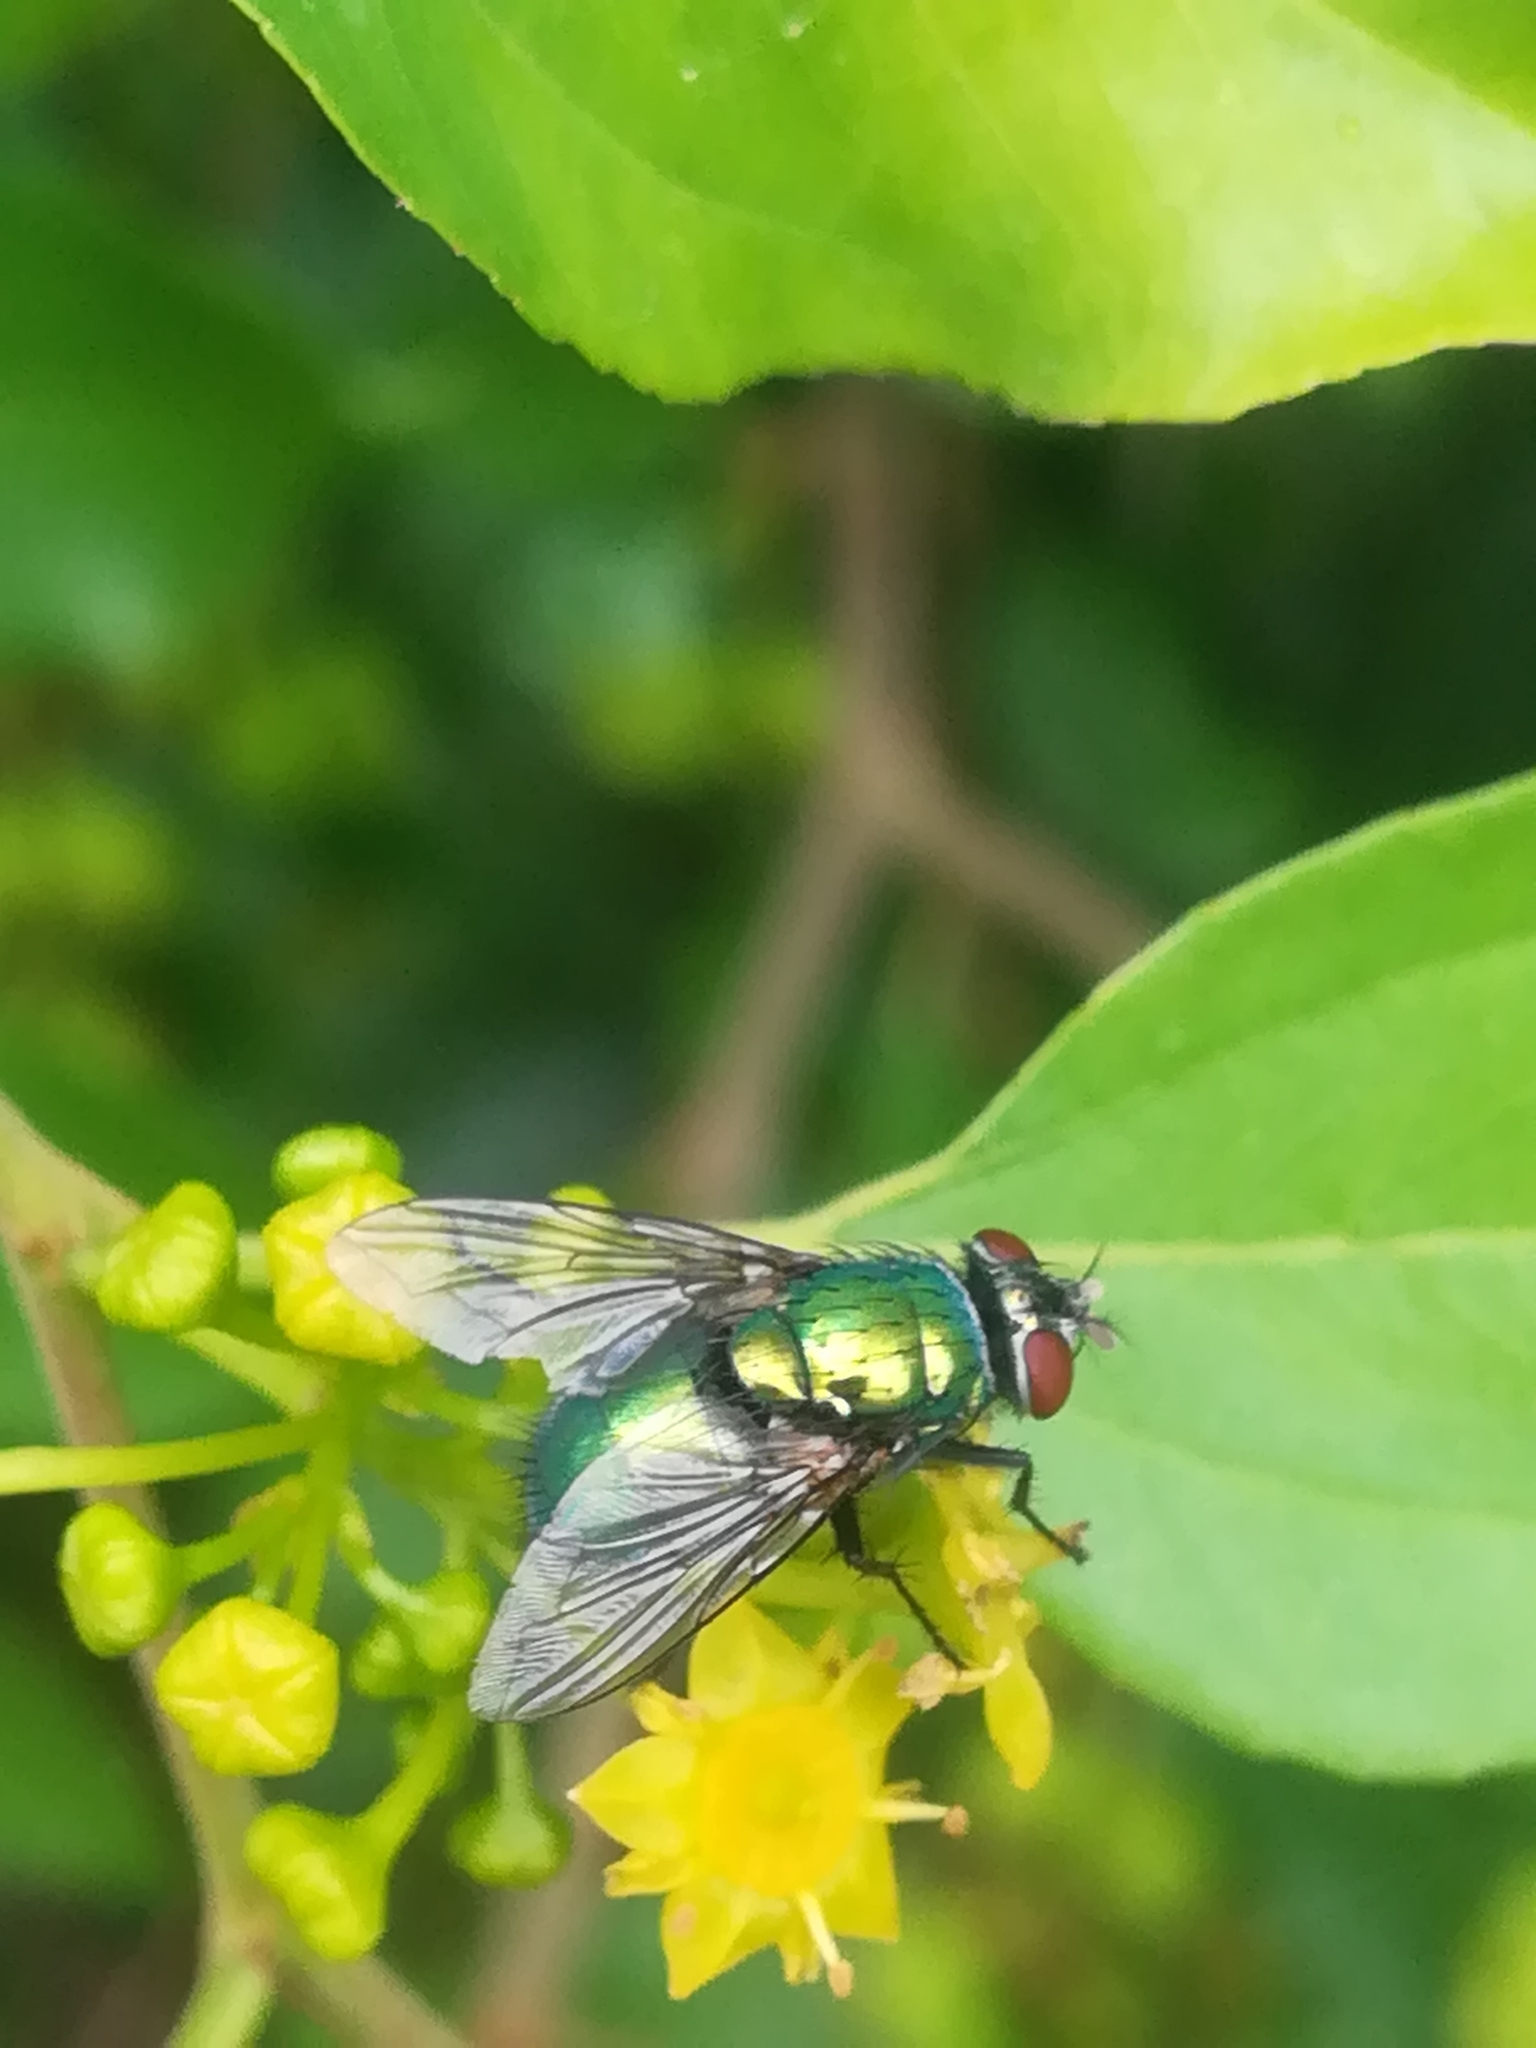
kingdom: Animalia
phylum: Arthropoda
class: Insecta
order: Diptera
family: Calliphoridae
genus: Lucilia
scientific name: Lucilia sericata
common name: Blow fly
